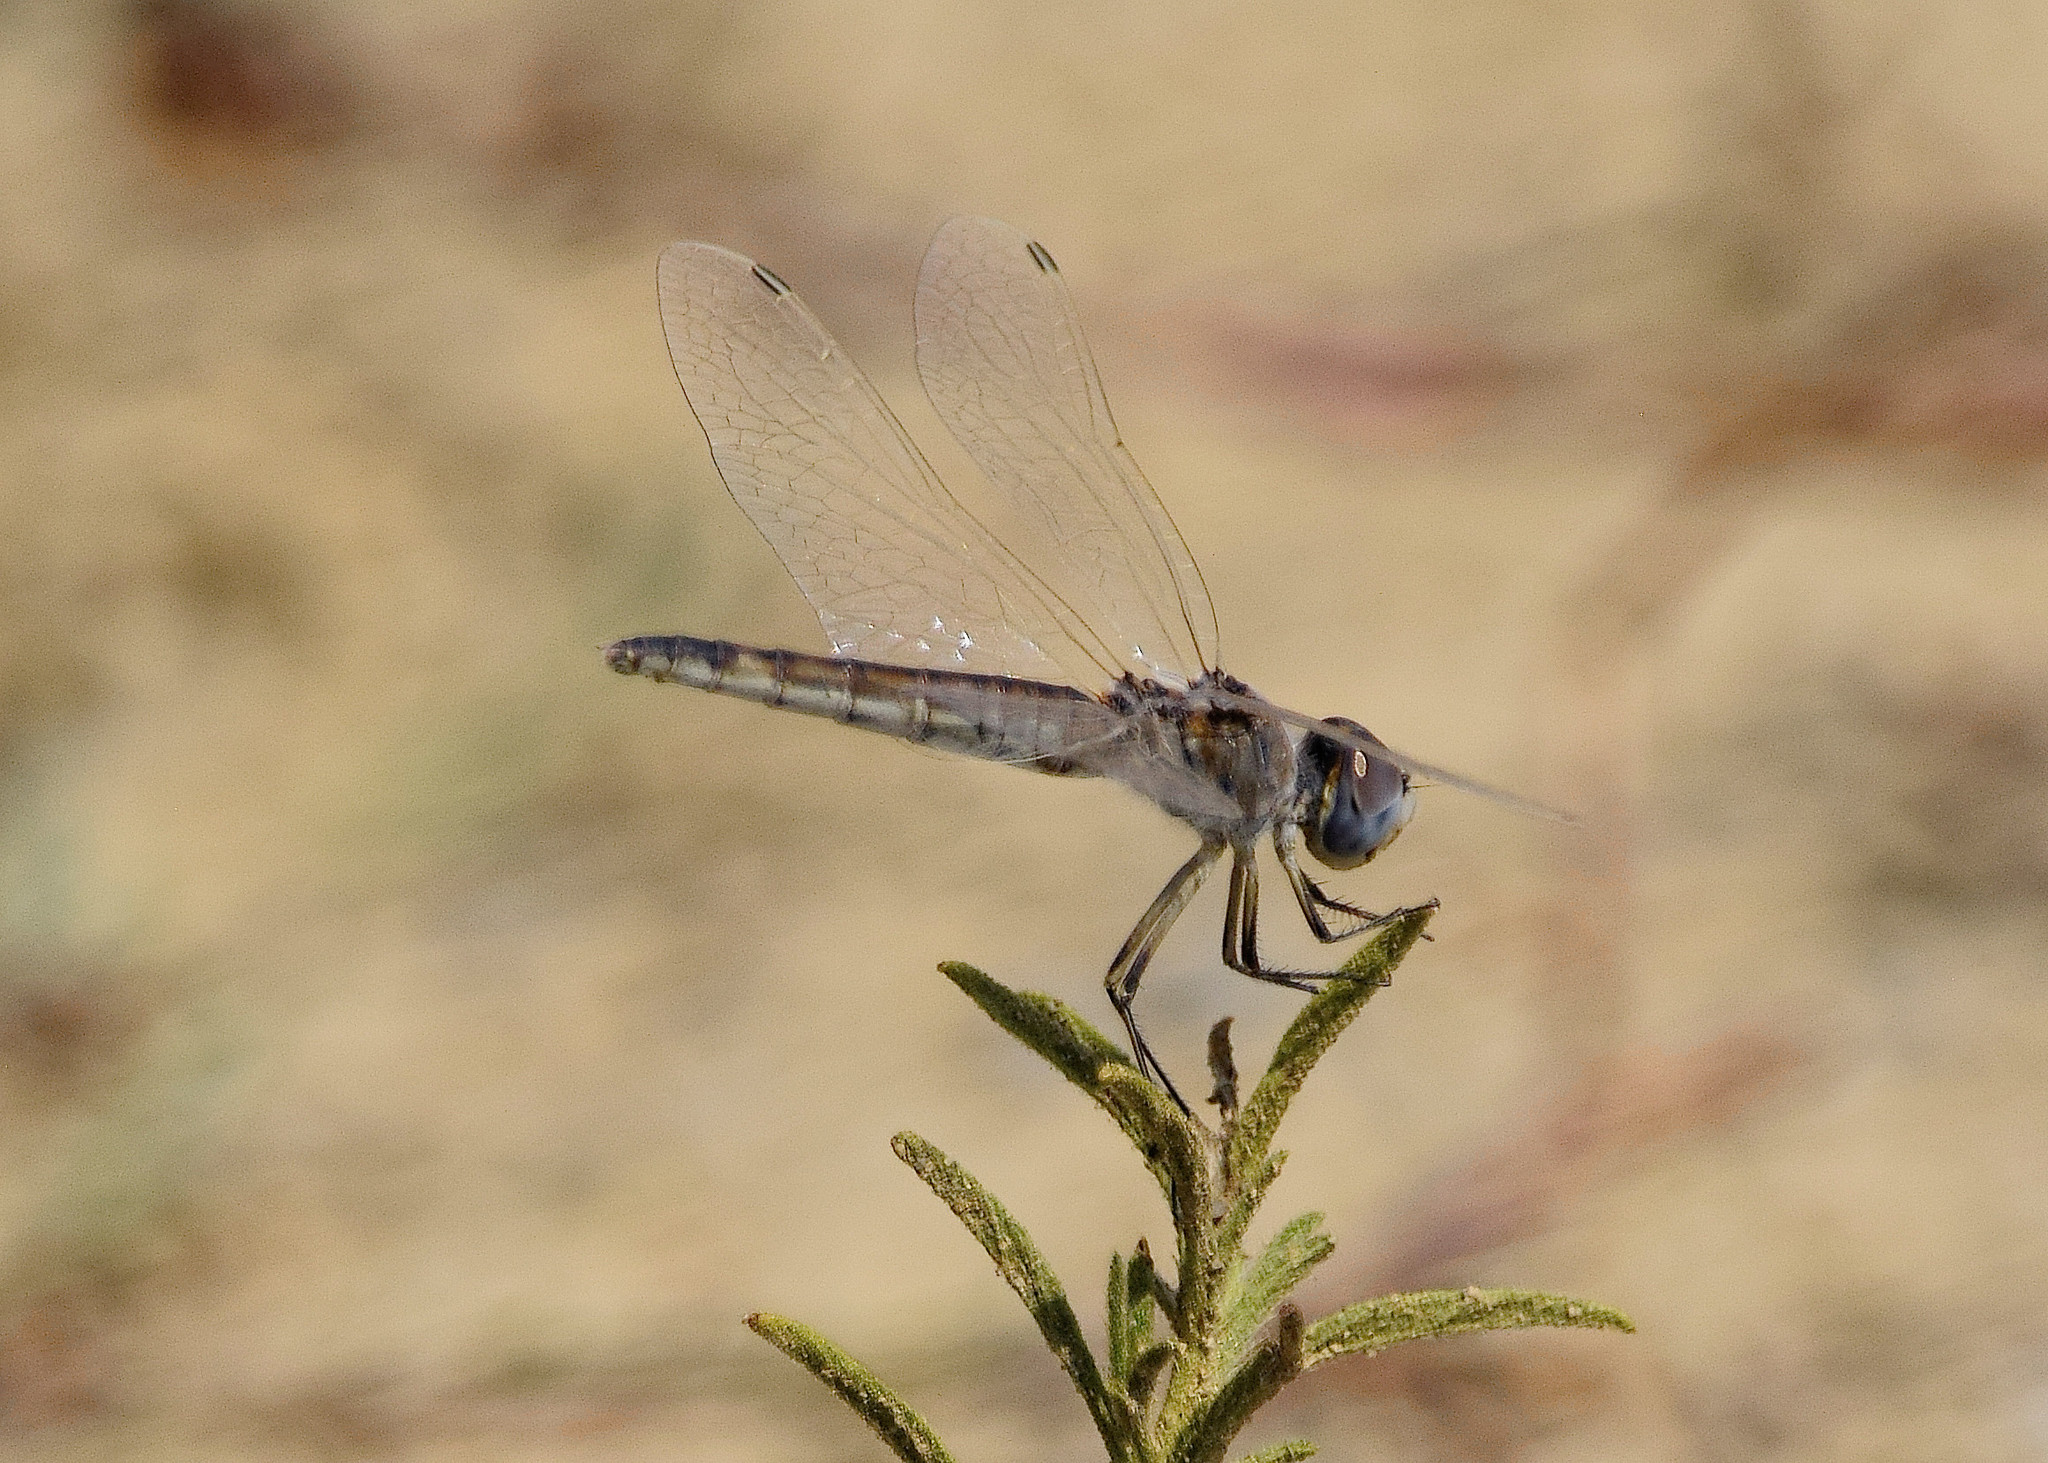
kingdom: Animalia
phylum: Arthropoda
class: Insecta
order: Odonata
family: Libellulidae
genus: Selysiothemis
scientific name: Selysiothemis nigra
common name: Black pennant
